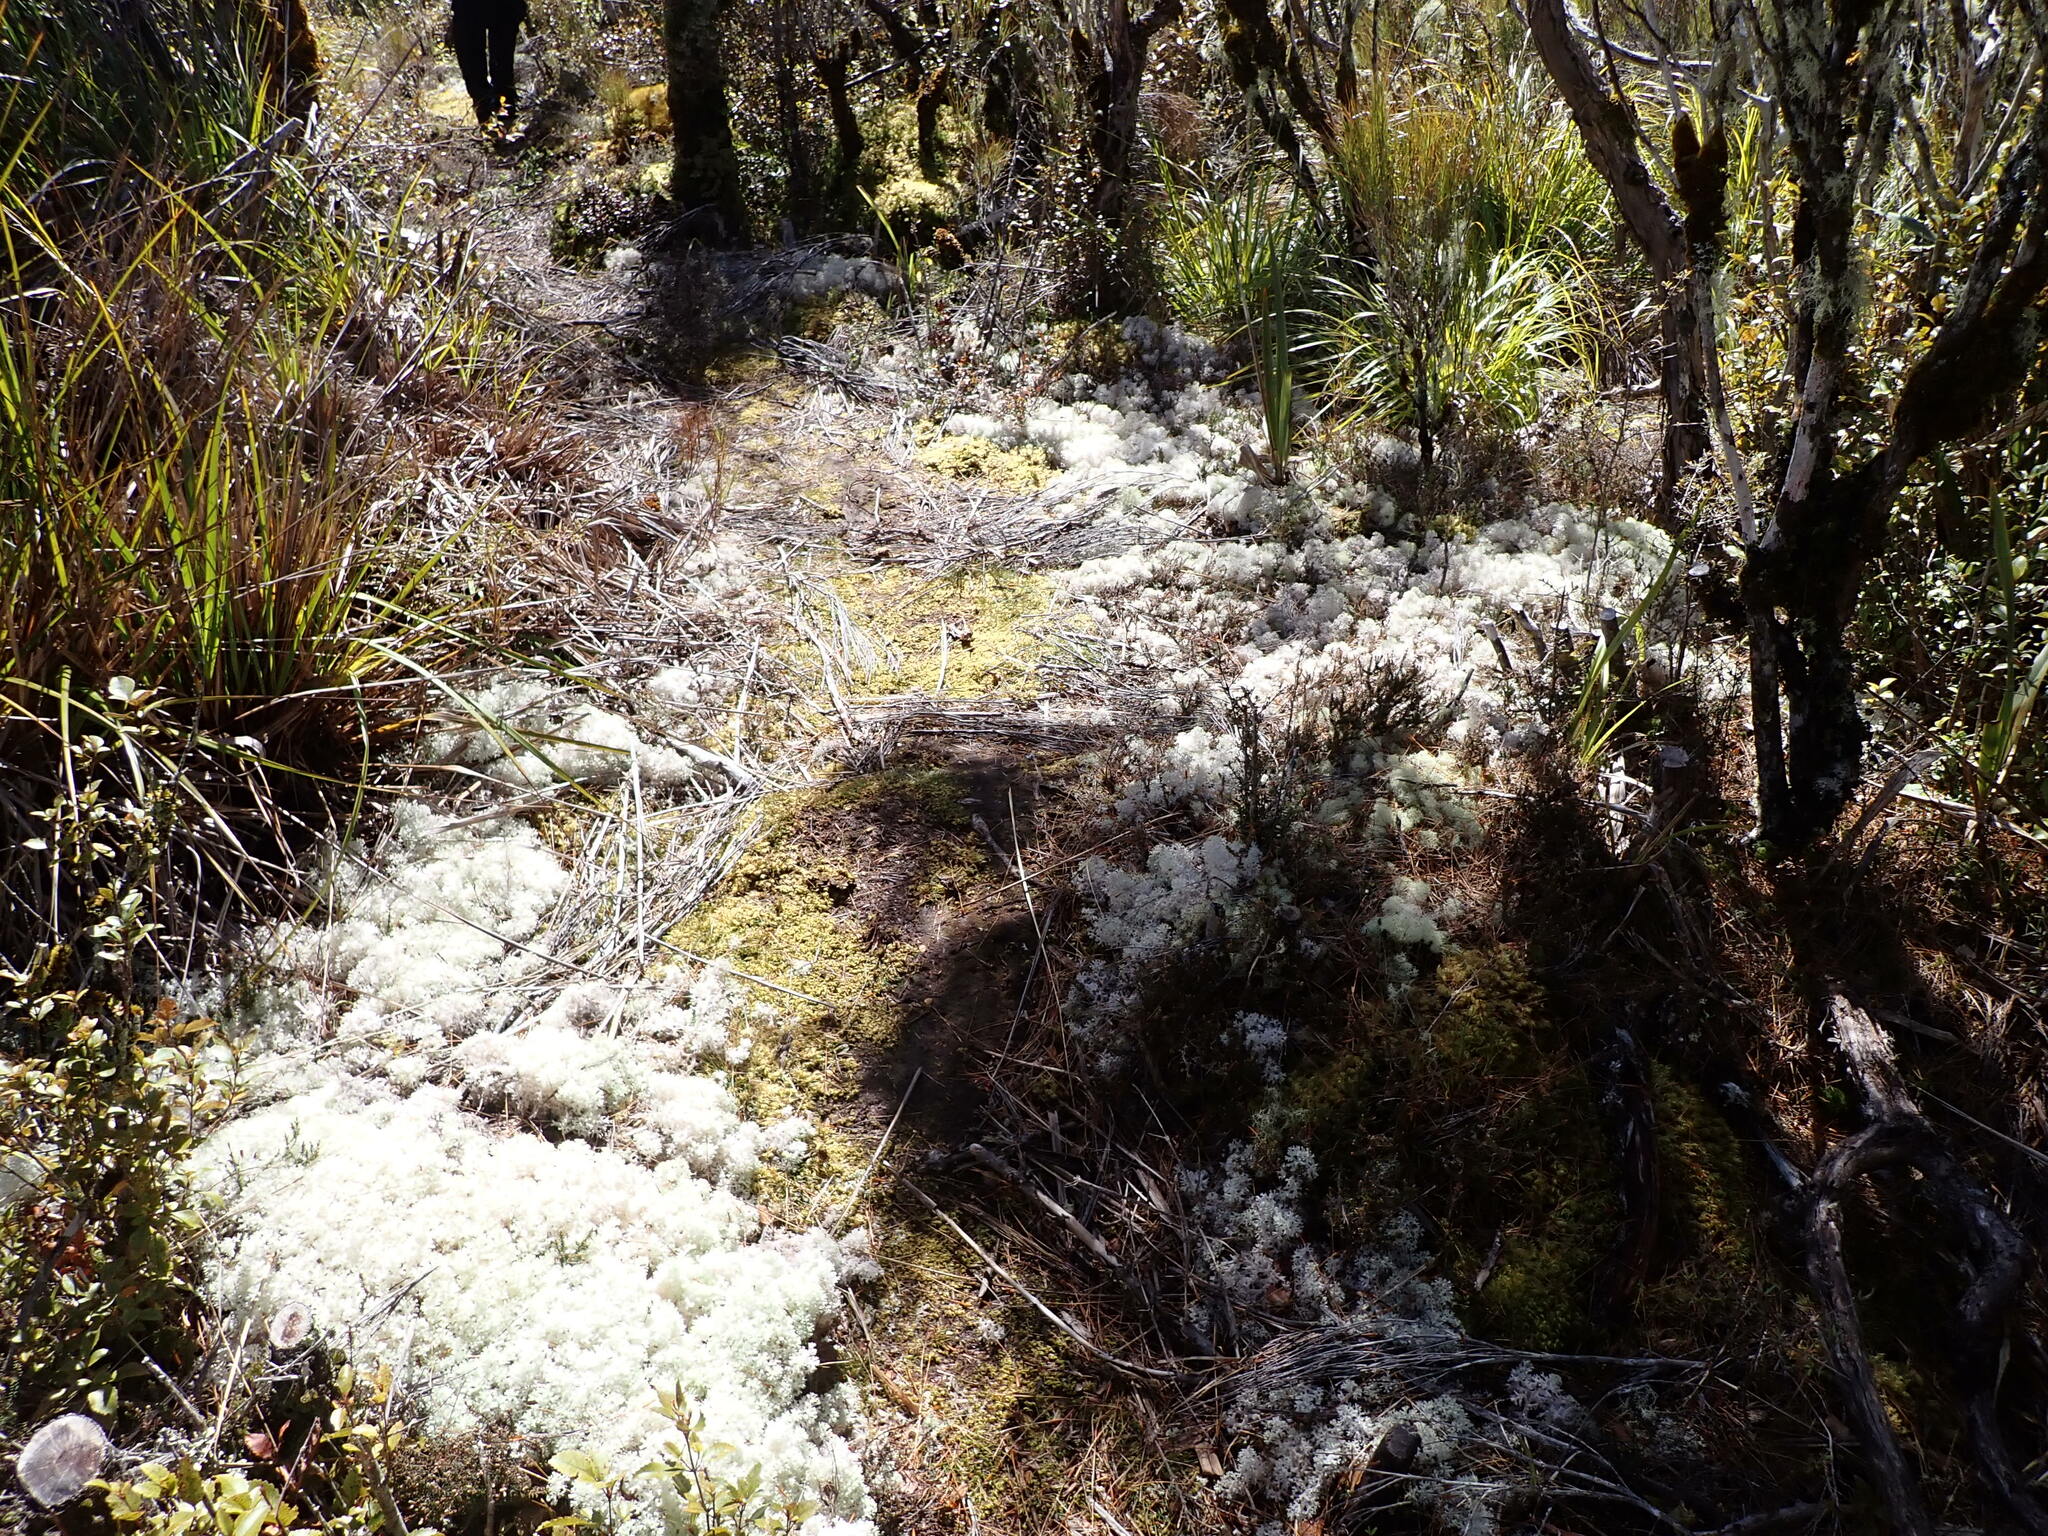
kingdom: Fungi
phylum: Ascomycota
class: Lecanoromycetes
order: Lecanorales
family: Cladoniaceae
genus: Pulchrocladia
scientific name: Pulchrocladia retipora
